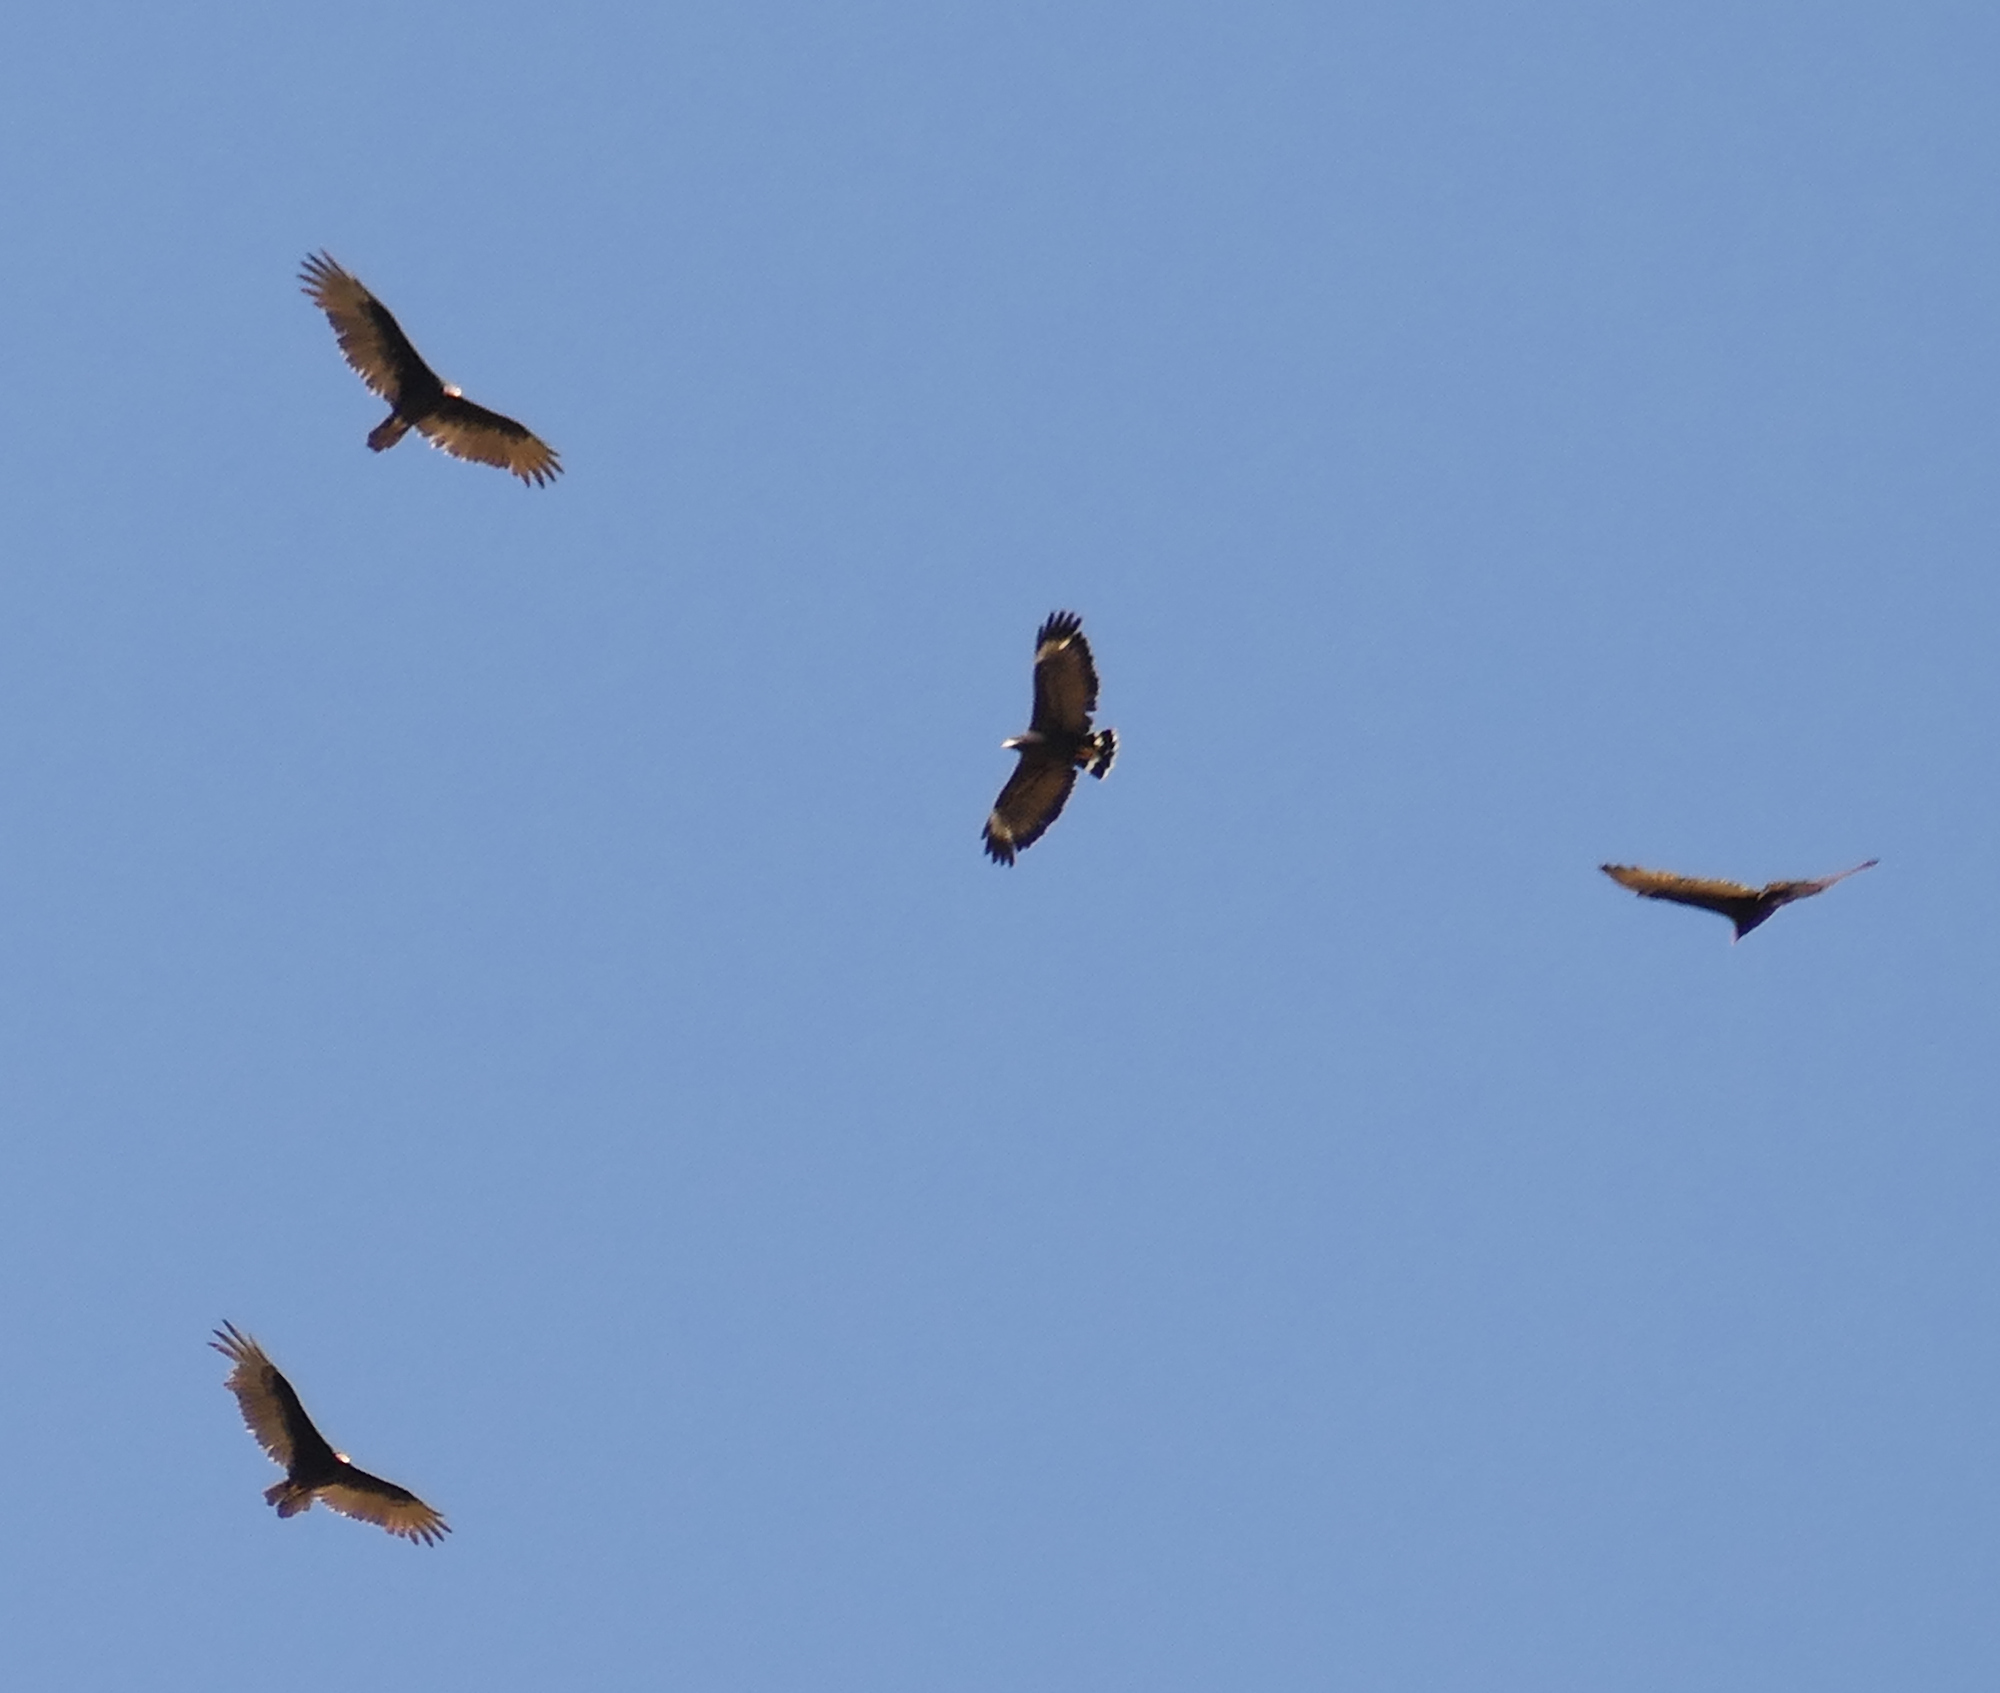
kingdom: Animalia
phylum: Chordata
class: Aves
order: Accipitriformes
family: Cathartidae
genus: Cathartes
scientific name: Cathartes aura
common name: Turkey vulture
